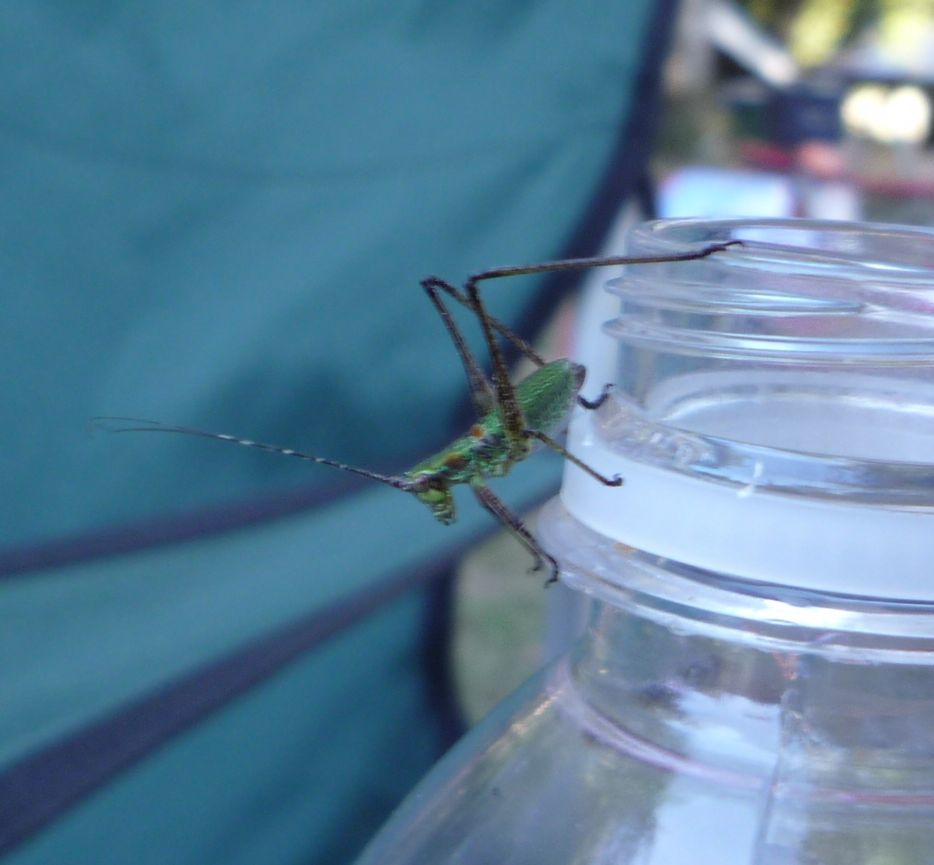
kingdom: Animalia
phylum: Arthropoda
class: Insecta
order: Orthoptera
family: Tettigoniidae
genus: Scudderia
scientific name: Scudderia furcata
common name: Fork-tailed bush katydid
